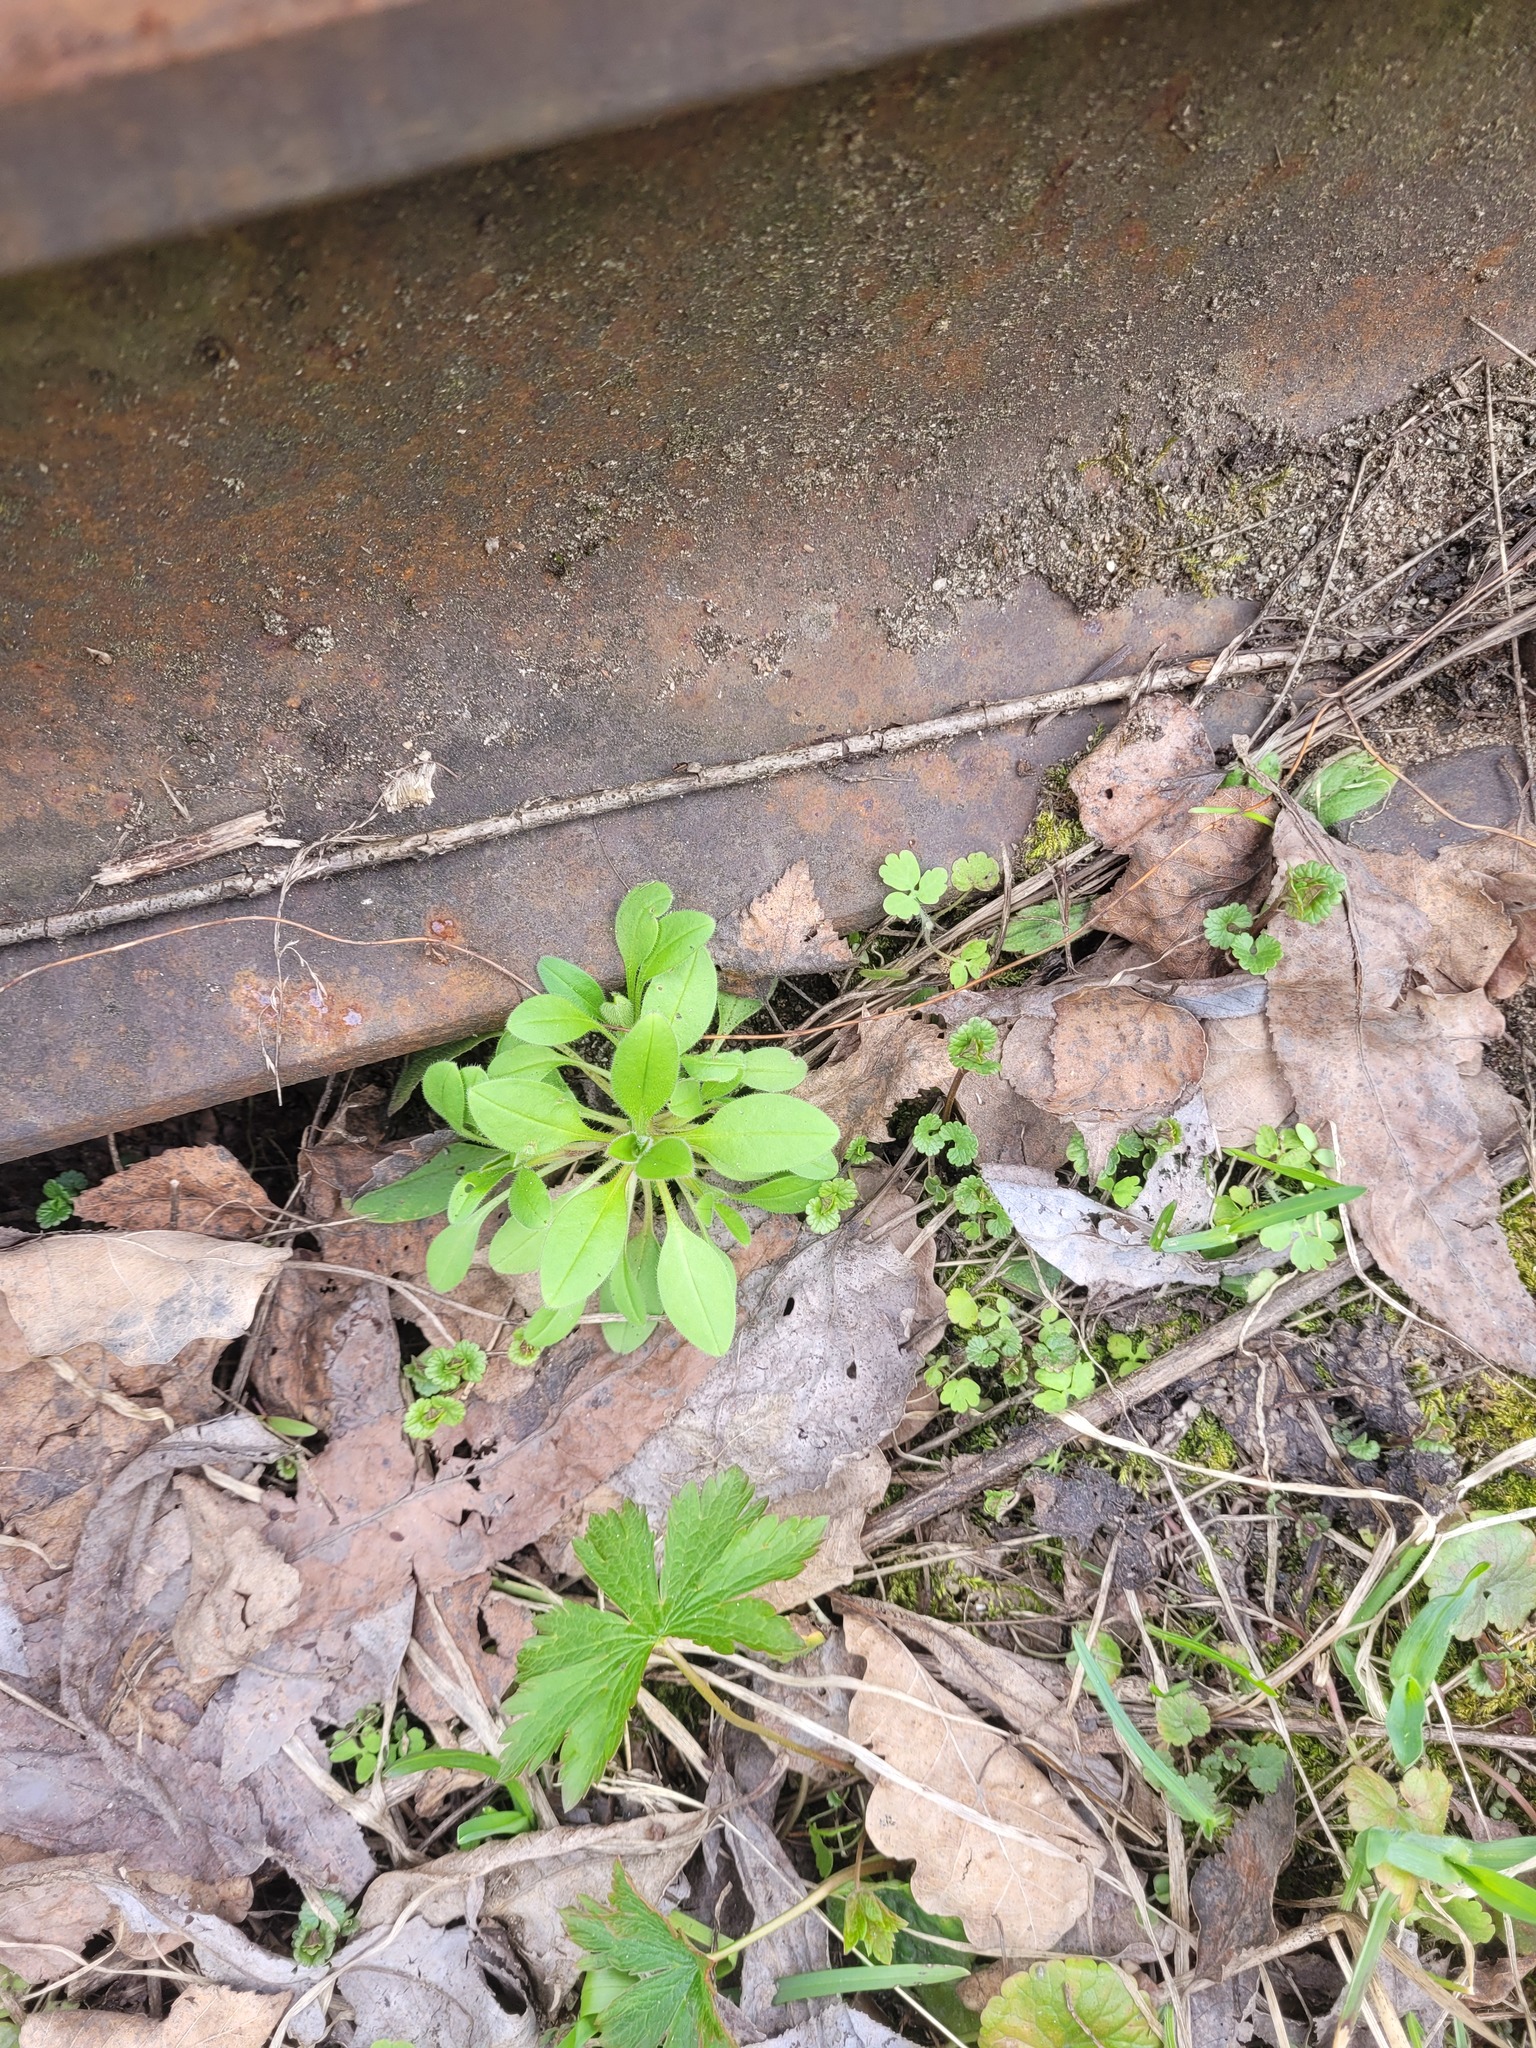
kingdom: Plantae
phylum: Tracheophyta
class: Magnoliopsida
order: Boraginales
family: Boraginaceae
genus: Myosotis
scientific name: Myosotis sparsiflora
